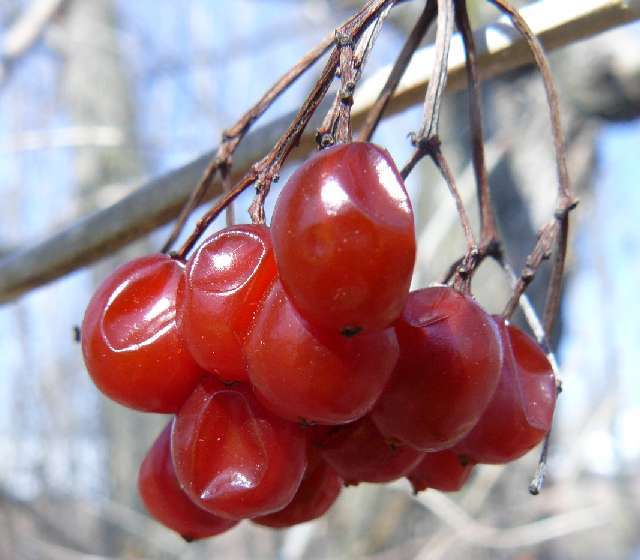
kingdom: Plantae
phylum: Tracheophyta
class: Magnoliopsida
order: Dipsacales
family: Viburnaceae
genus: Viburnum
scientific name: Viburnum opulus
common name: Guelder-rose
